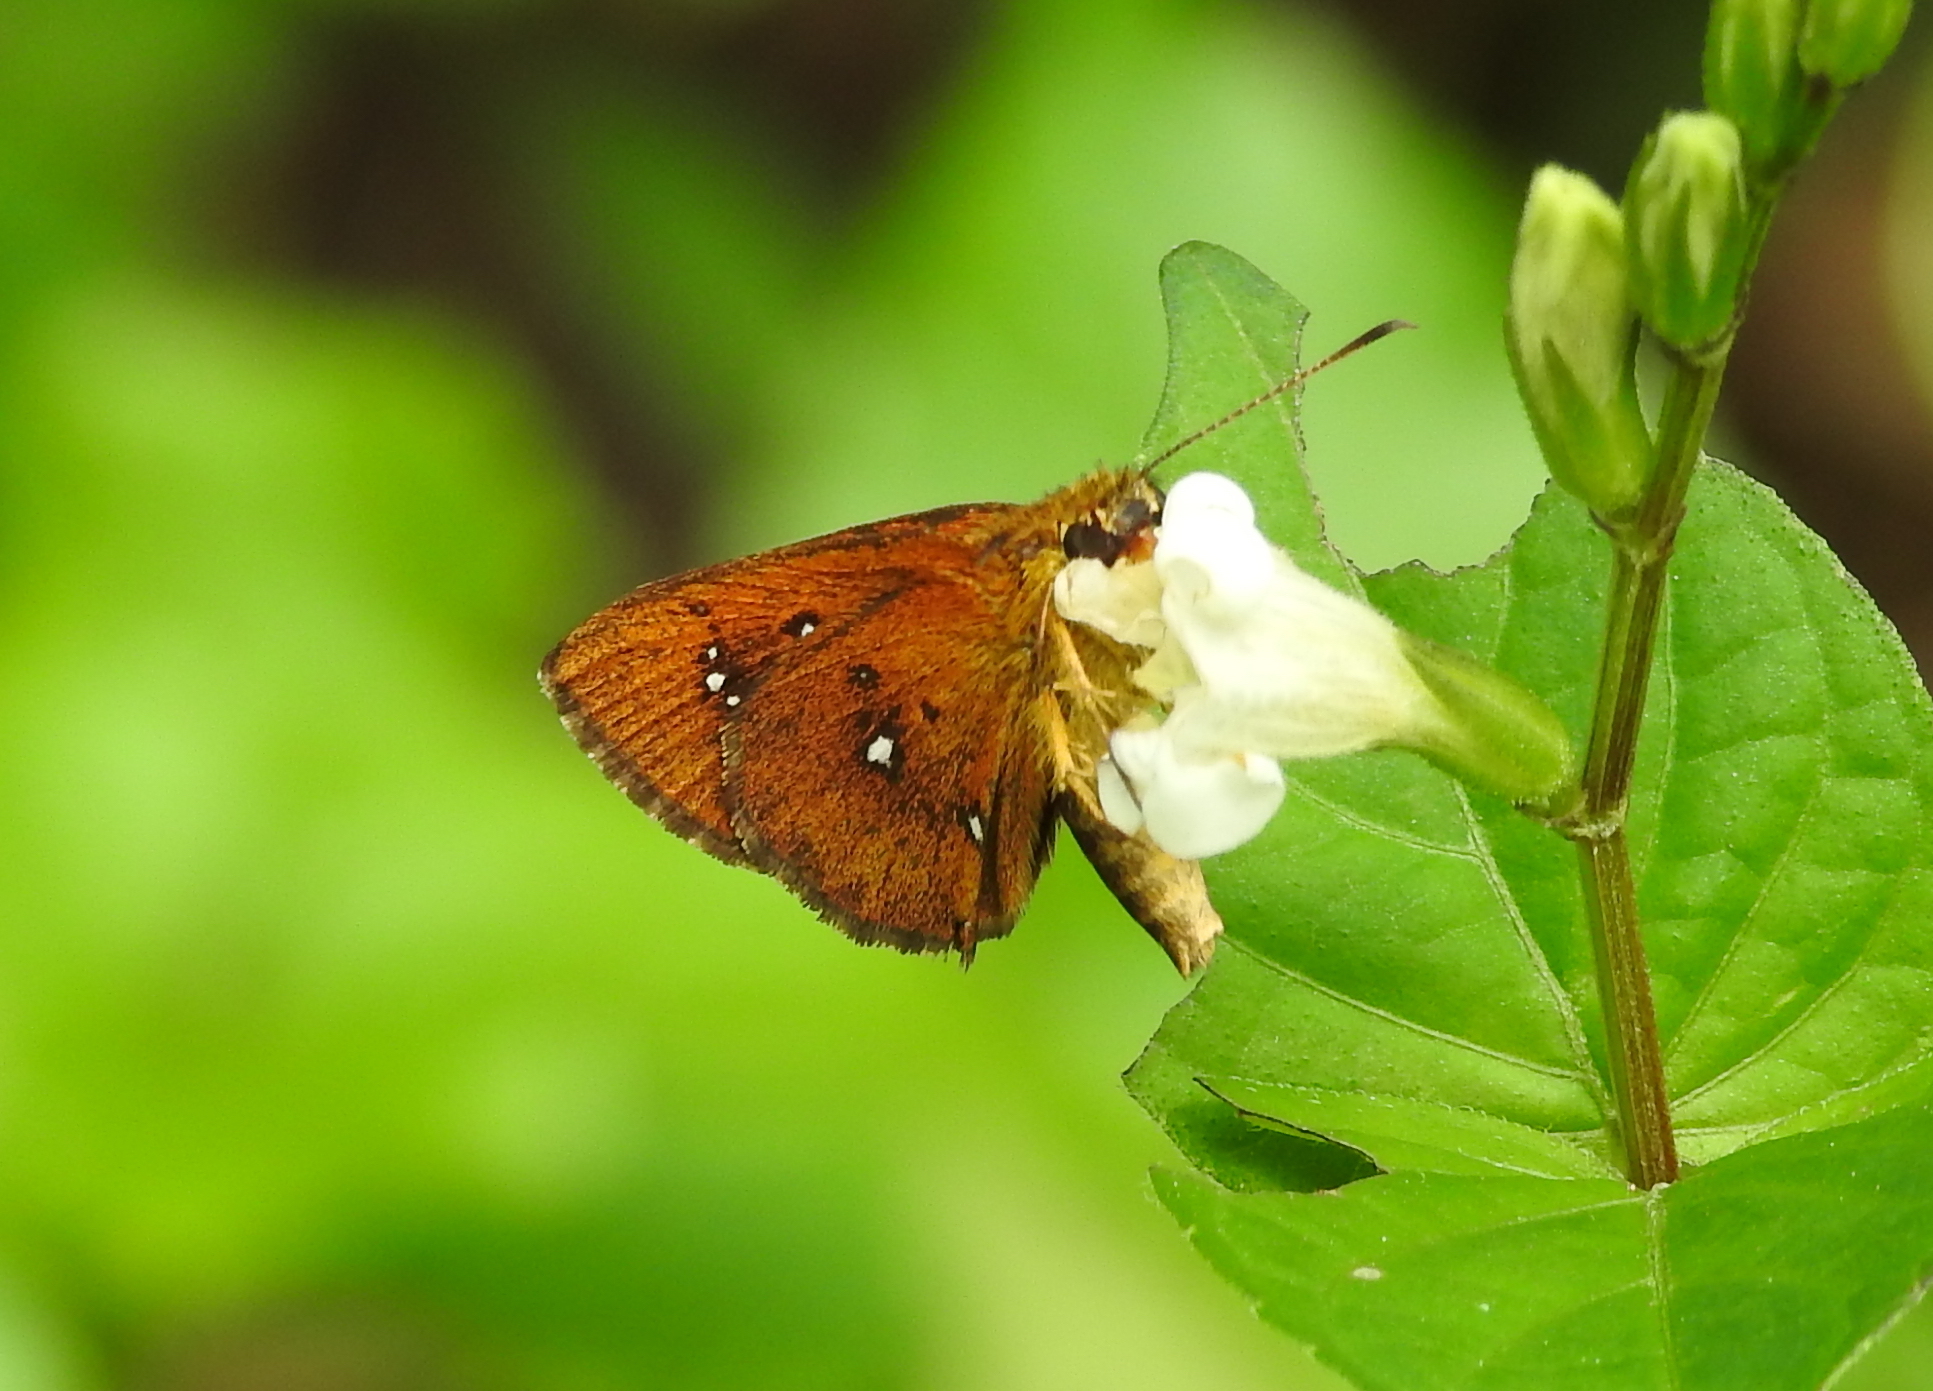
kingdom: Animalia
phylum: Arthropoda
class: Insecta
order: Lepidoptera
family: Hesperiidae
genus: Iambrix
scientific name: Iambrix salsala
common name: Chestnut bob
